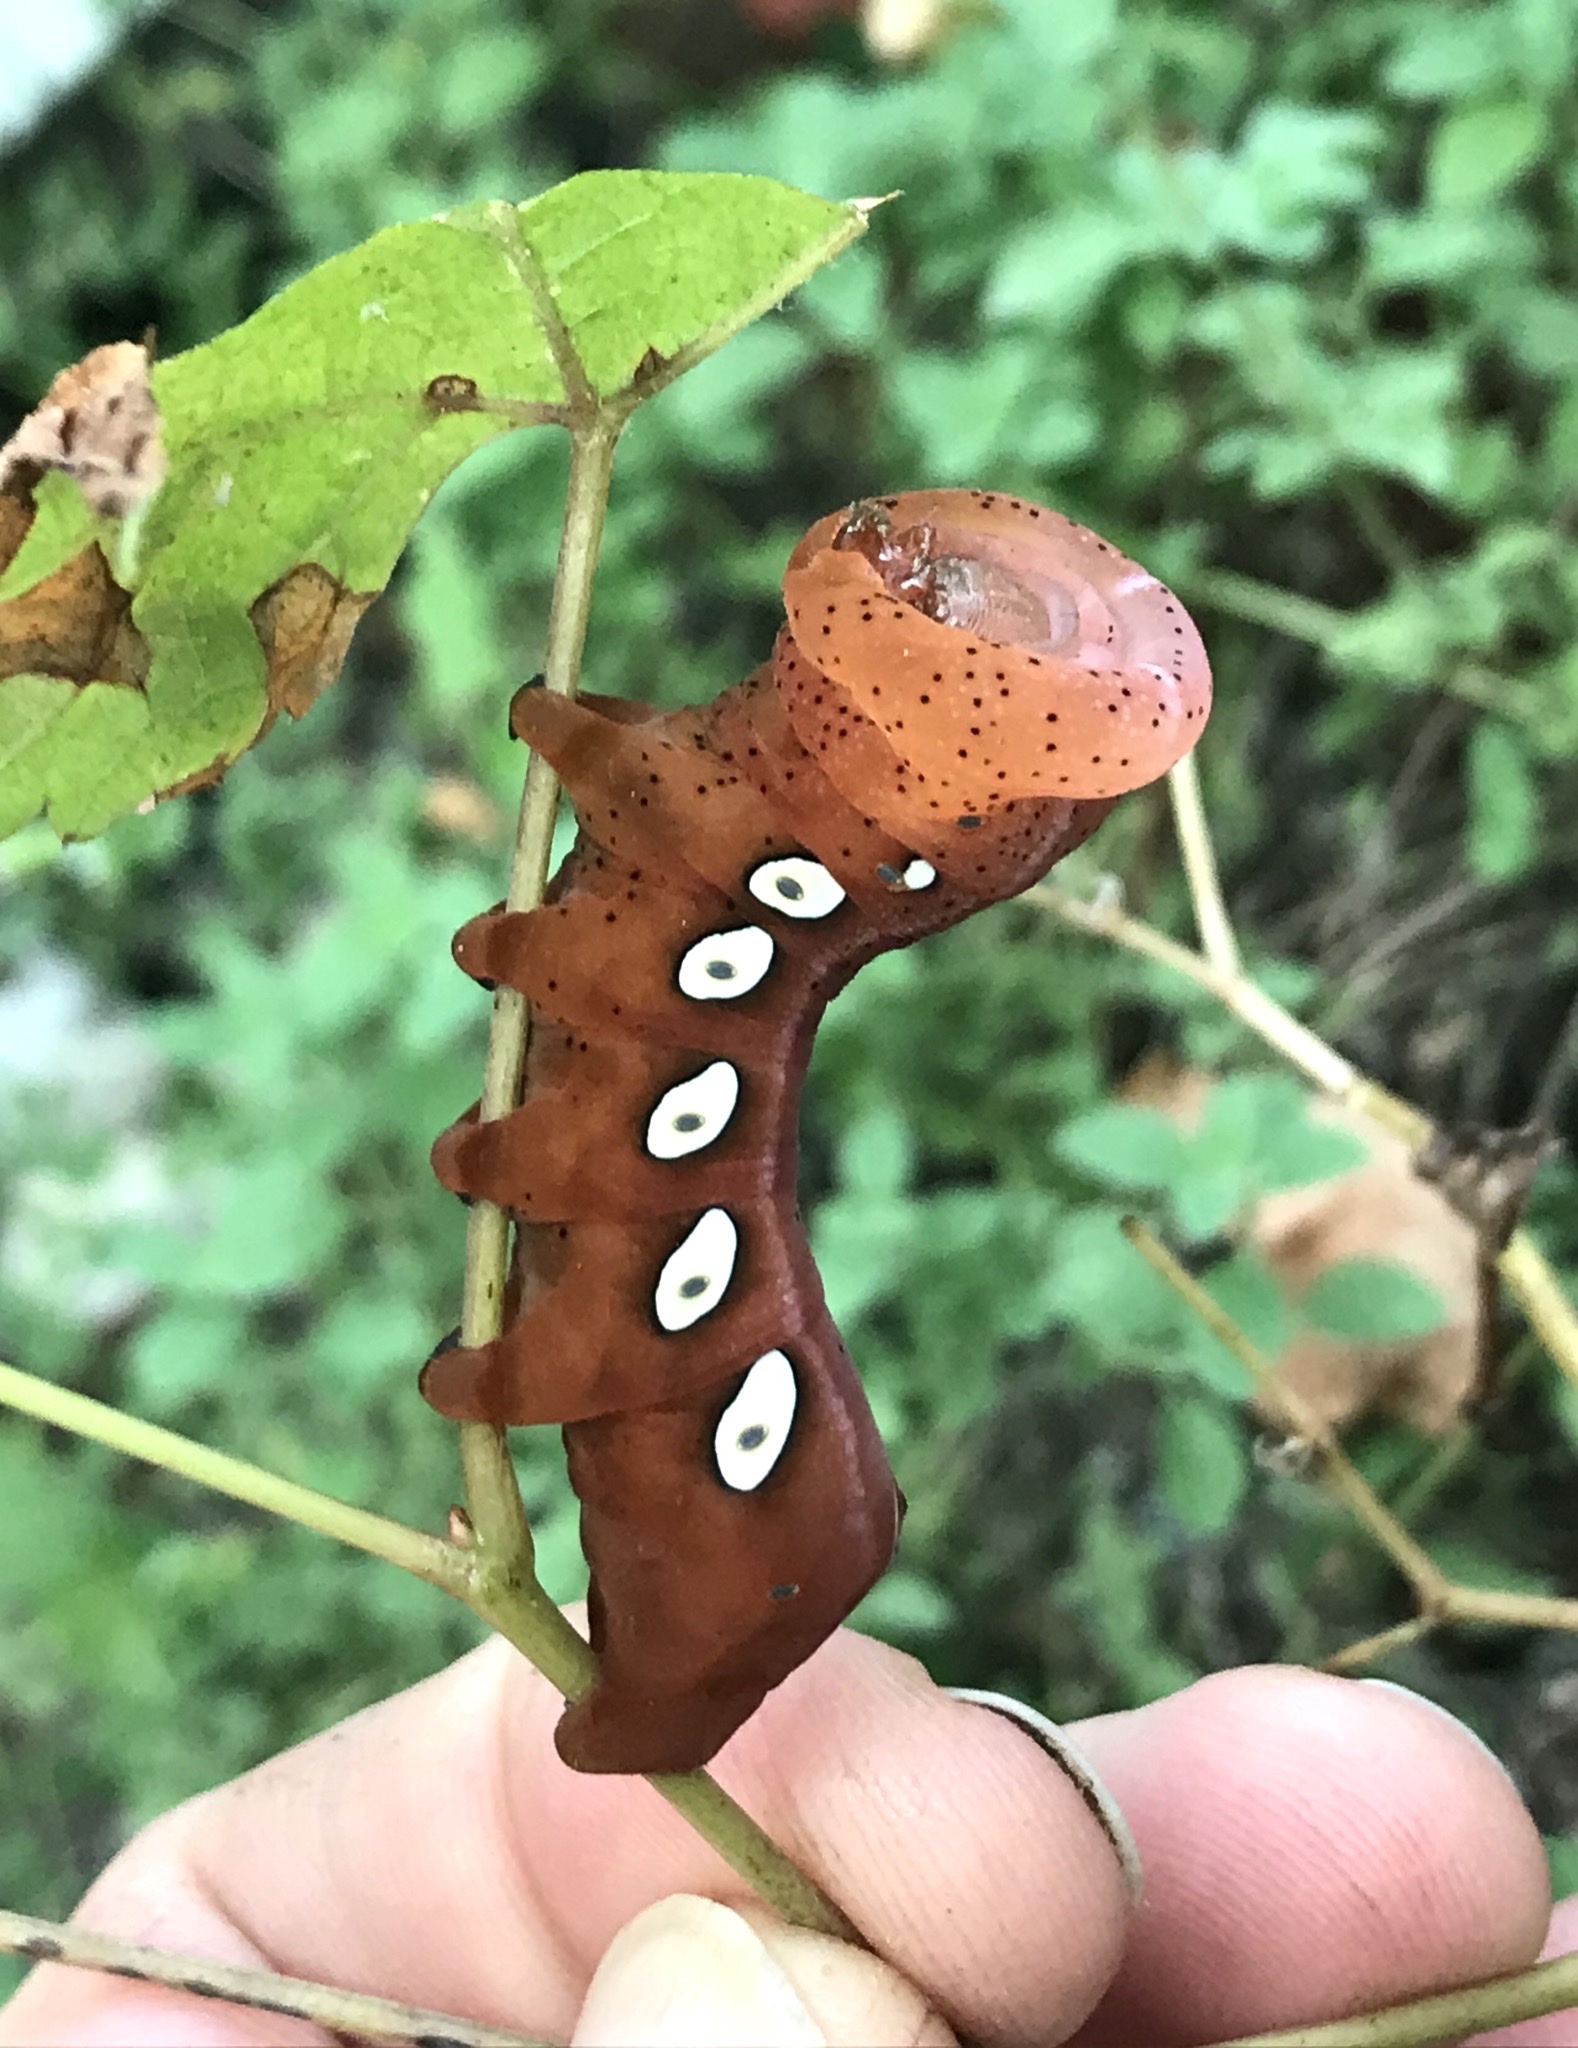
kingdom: Animalia
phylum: Arthropoda
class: Insecta
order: Lepidoptera
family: Sphingidae
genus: Eumorpha
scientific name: Eumorpha pandorus
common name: Pandora sphinx
